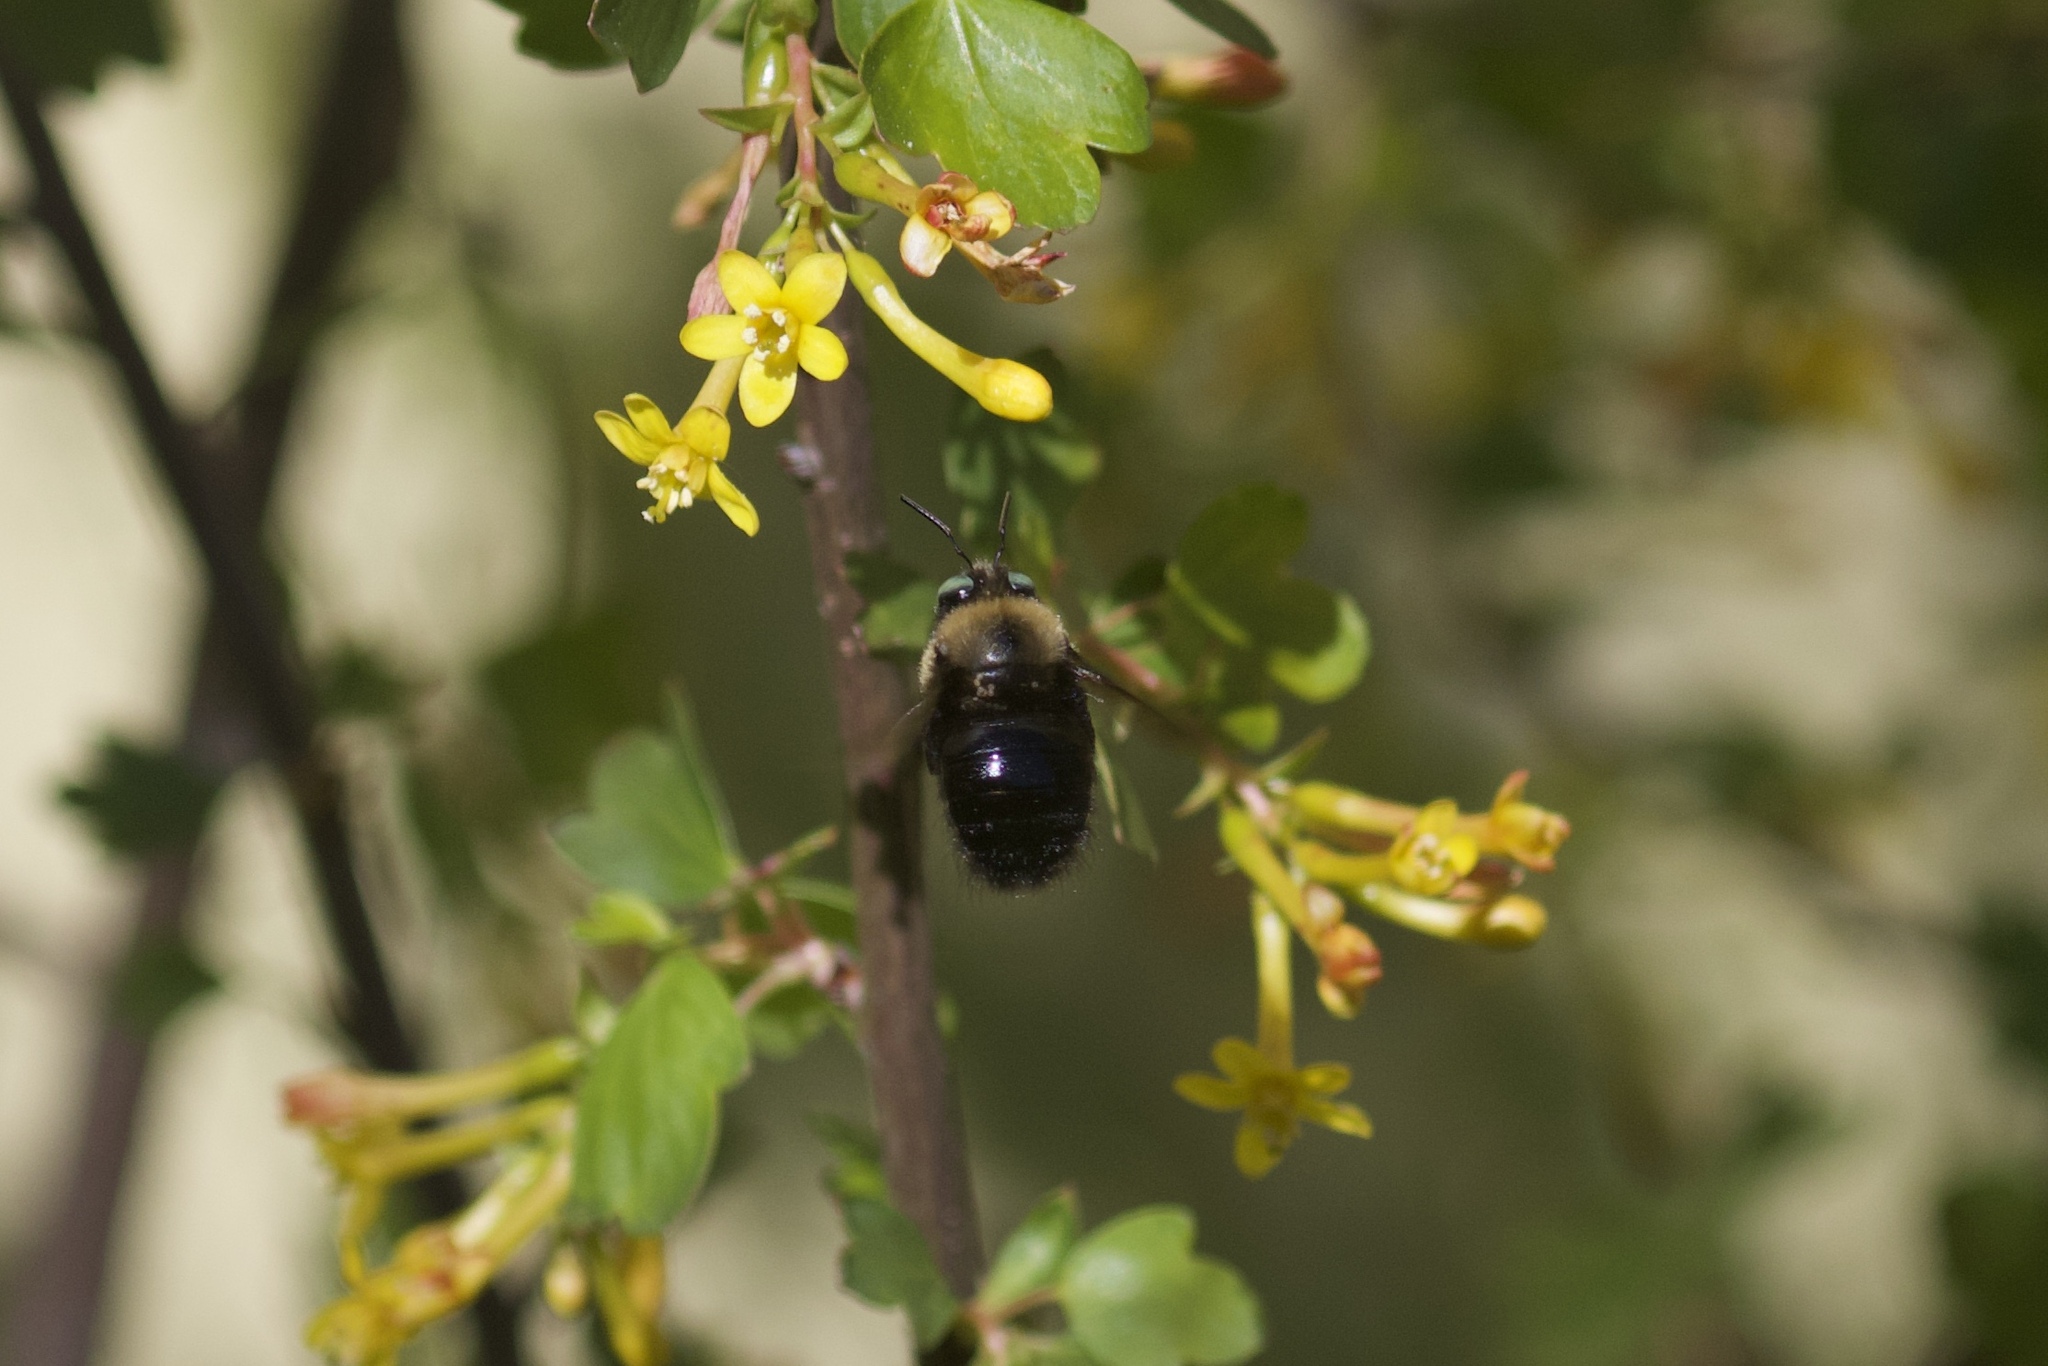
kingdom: Animalia
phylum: Arthropoda
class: Insecta
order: Hymenoptera
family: Apidae
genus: Xylocopa
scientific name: Xylocopa tabaniformis
